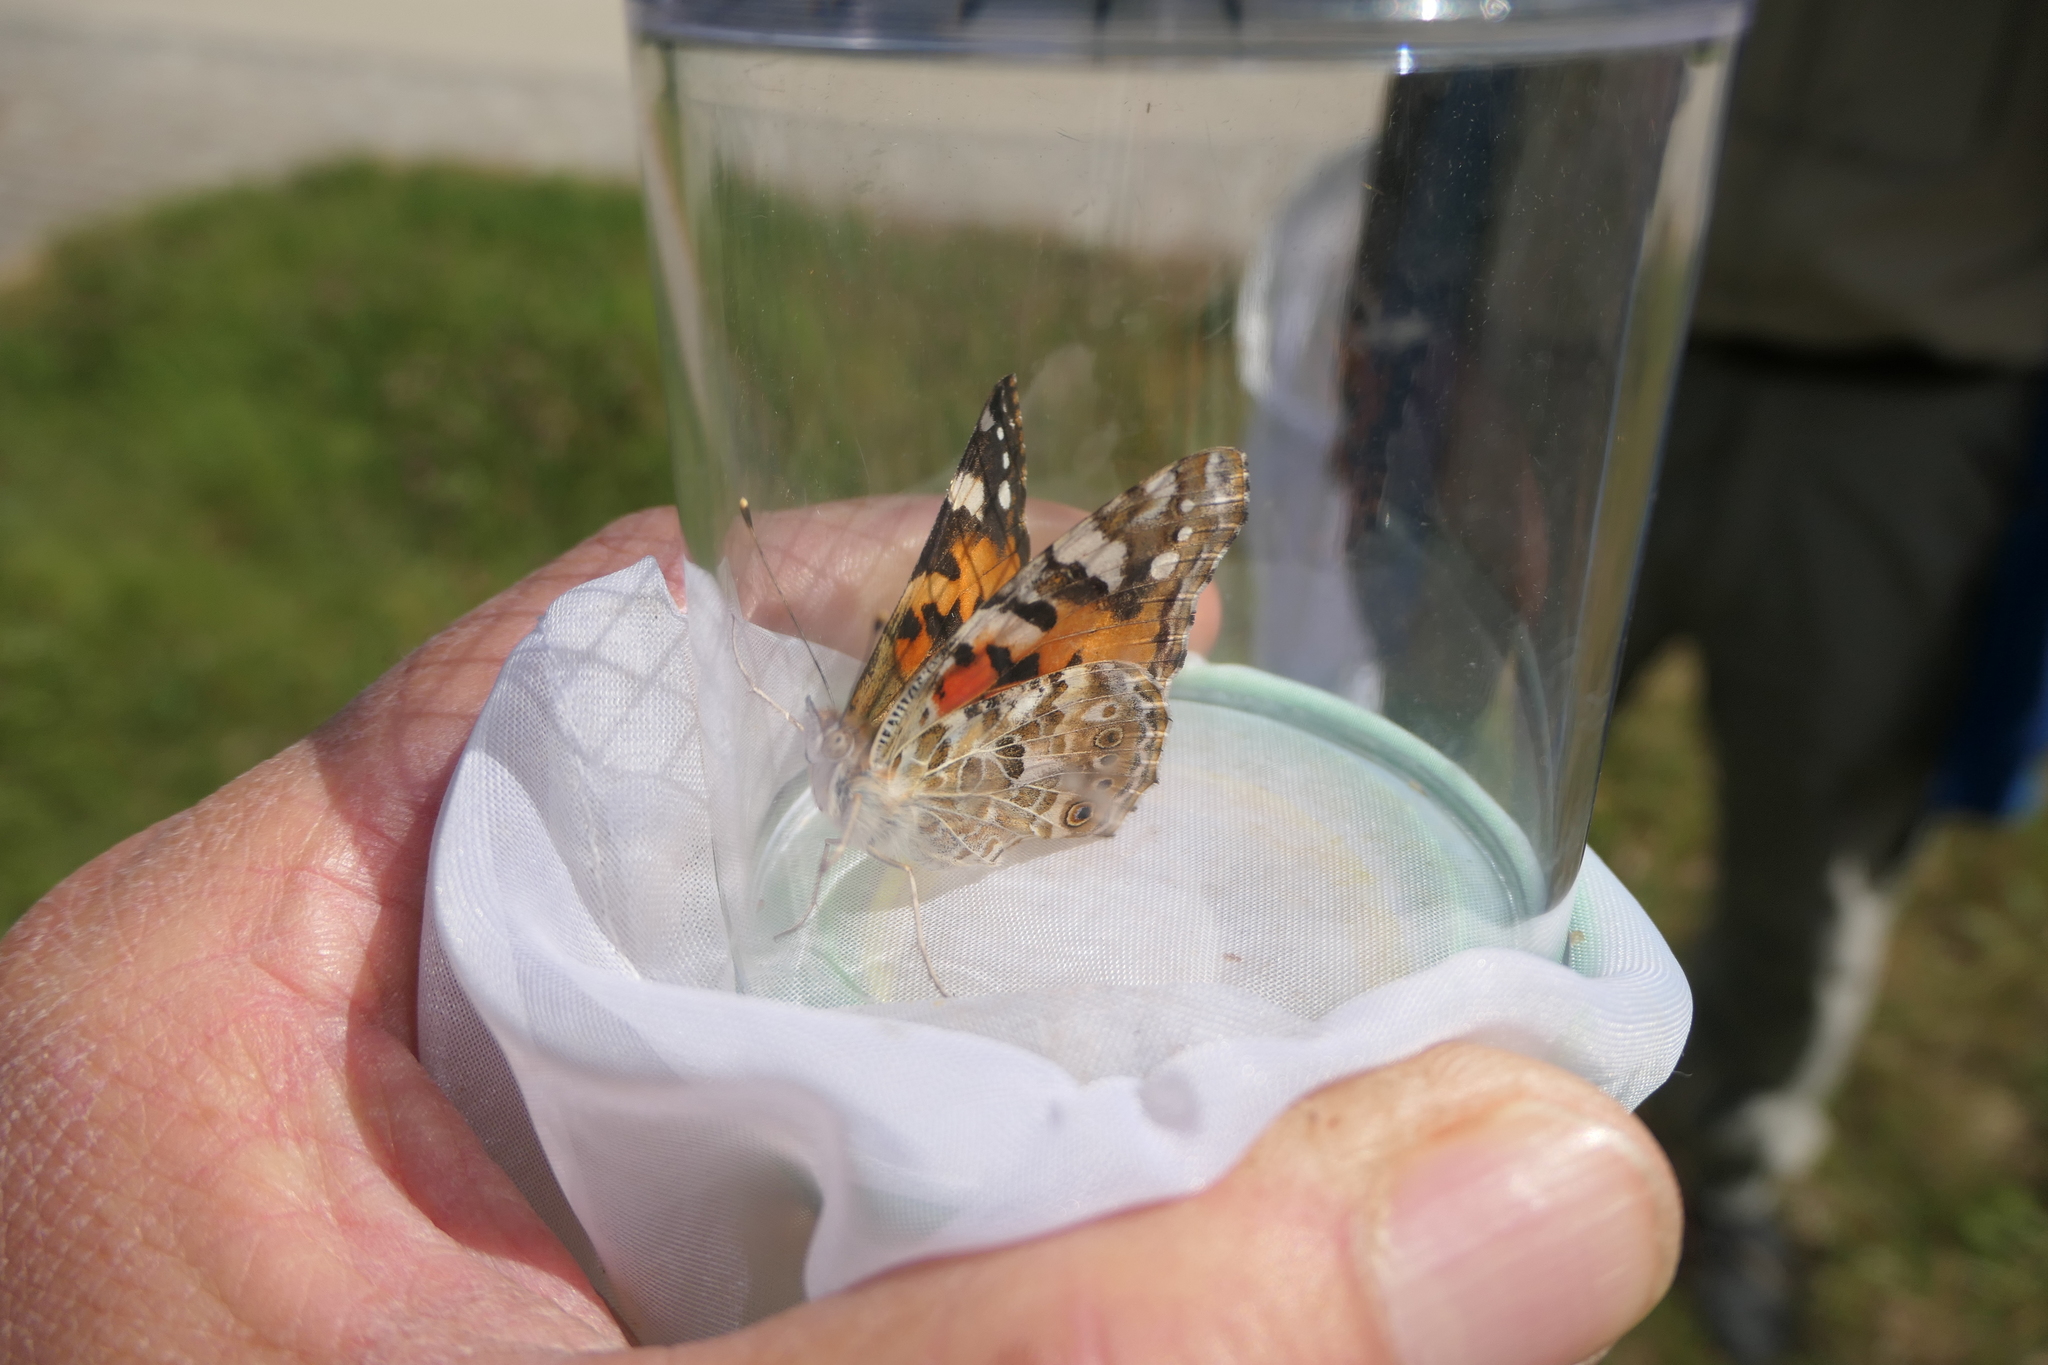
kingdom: Animalia
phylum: Arthropoda
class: Insecta
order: Lepidoptera
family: Nymphalidae
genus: Vanessa
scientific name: Vanessa cardui
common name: Painted lady
